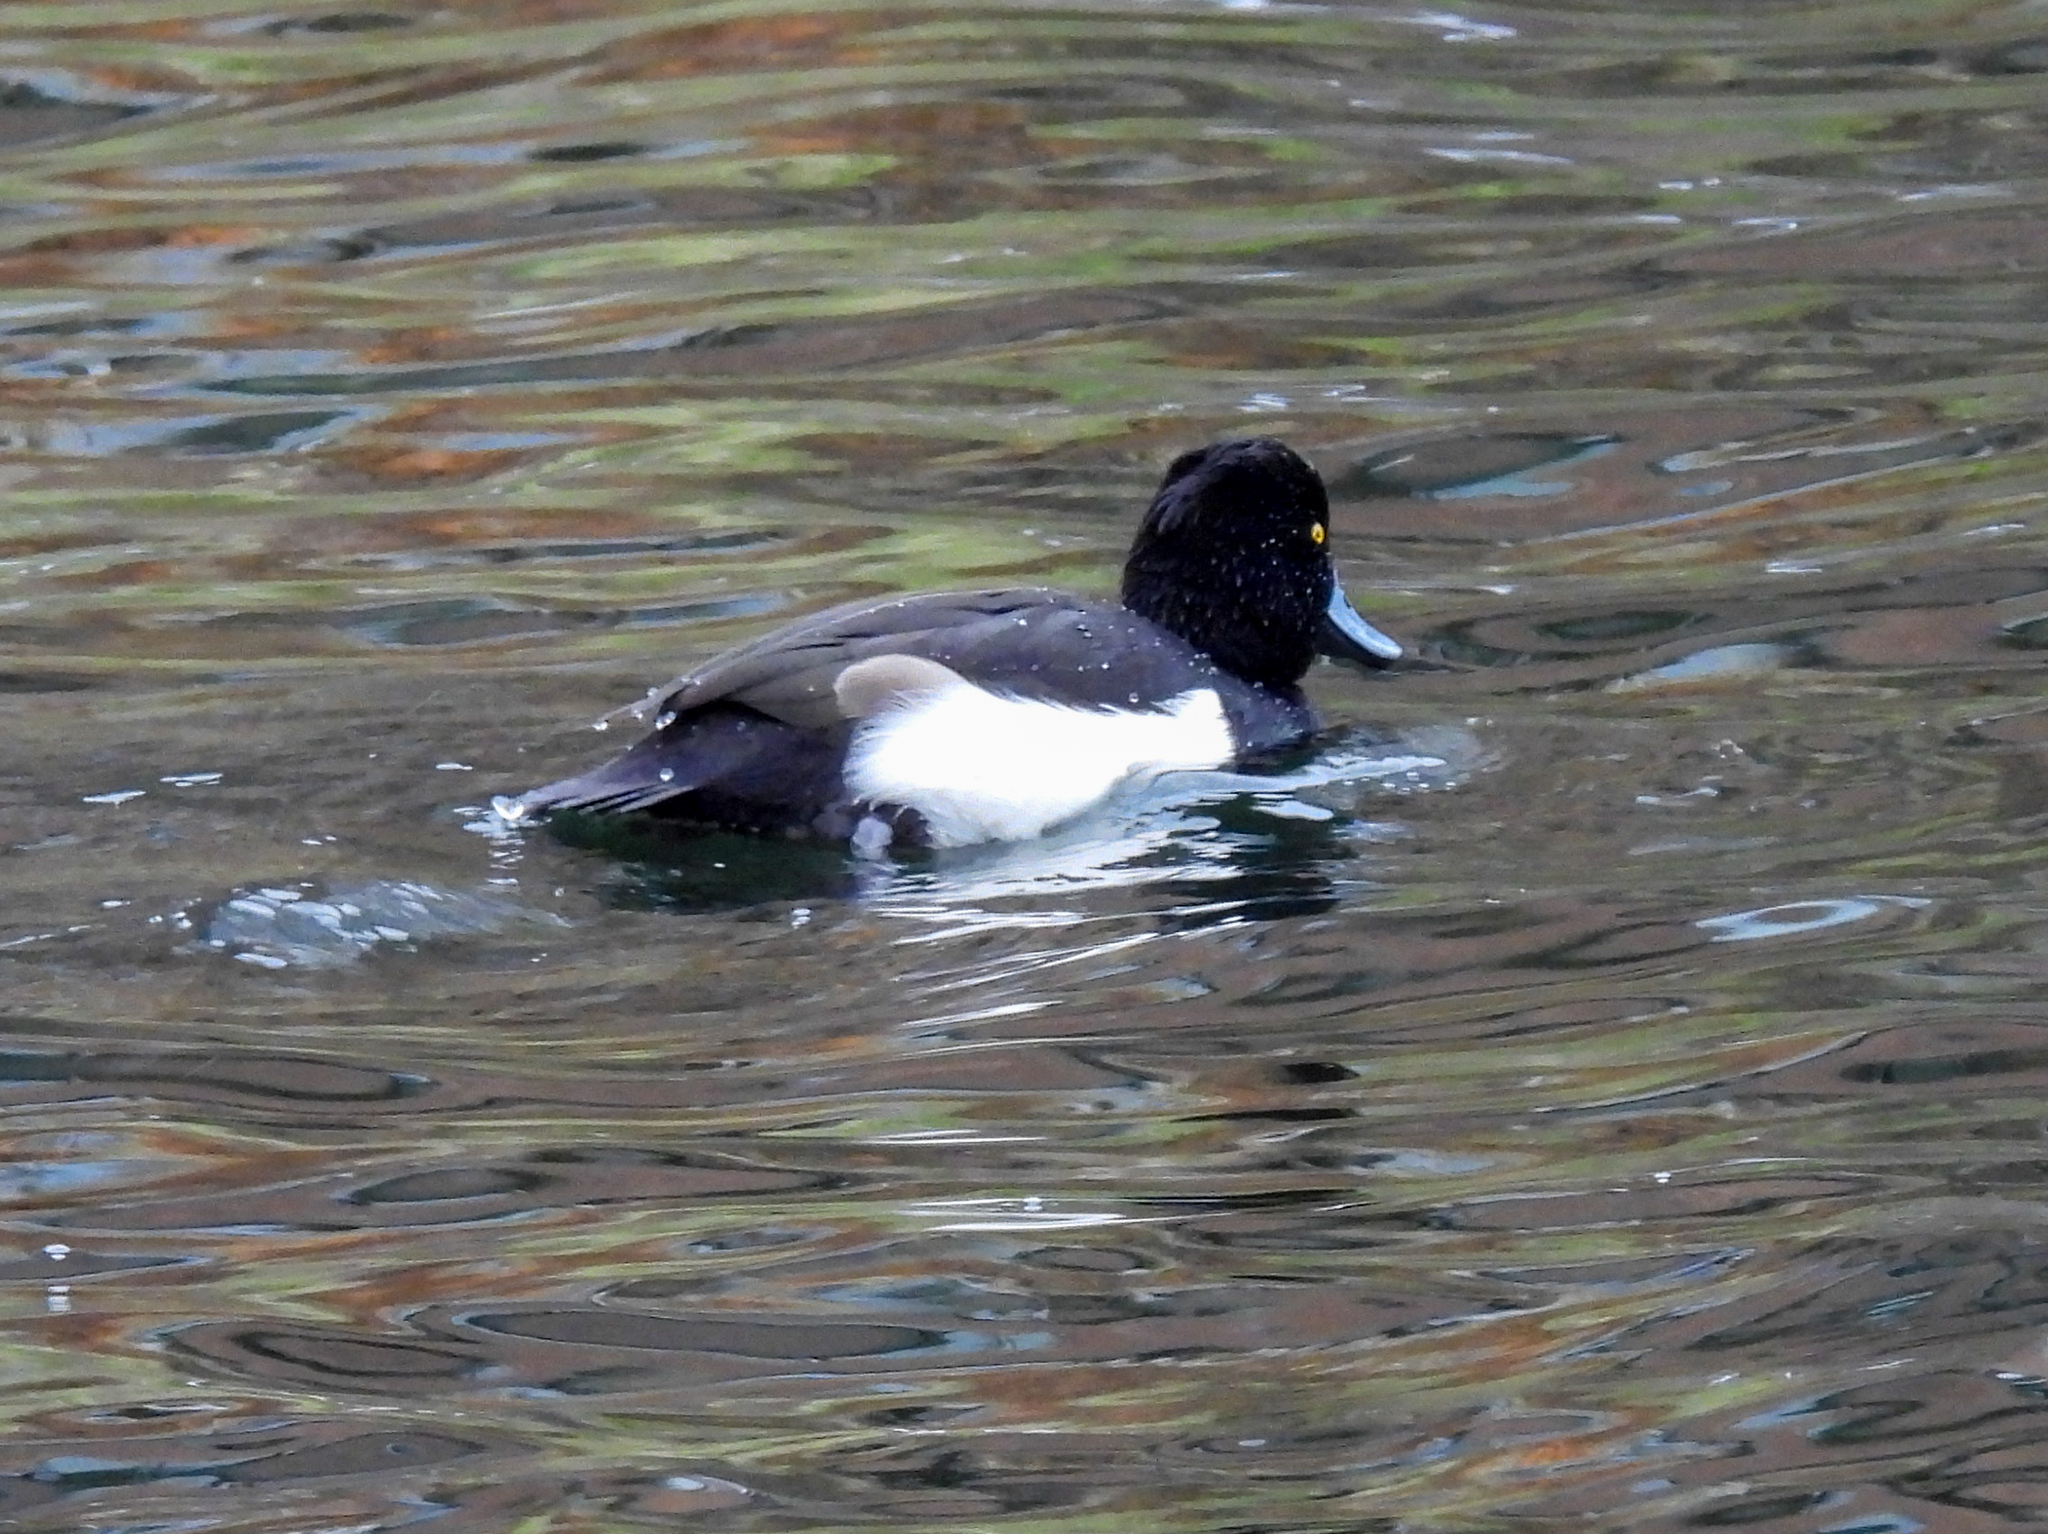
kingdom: Animalia
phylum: Chordata
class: Aves
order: Anseriformes
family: Anatidae
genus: Aythya
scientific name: Aythya fuligula
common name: Tufted duck
